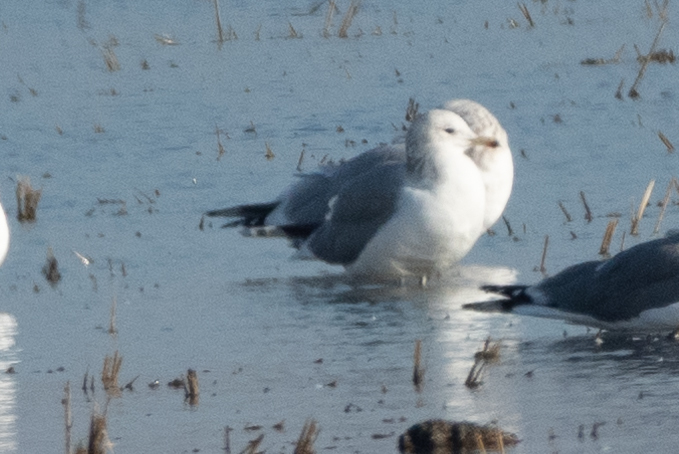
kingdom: Animalia
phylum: Chordata
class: Aves
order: Charadriiformes
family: Laridae
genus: Larus
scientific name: Larus californicus
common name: California gull
